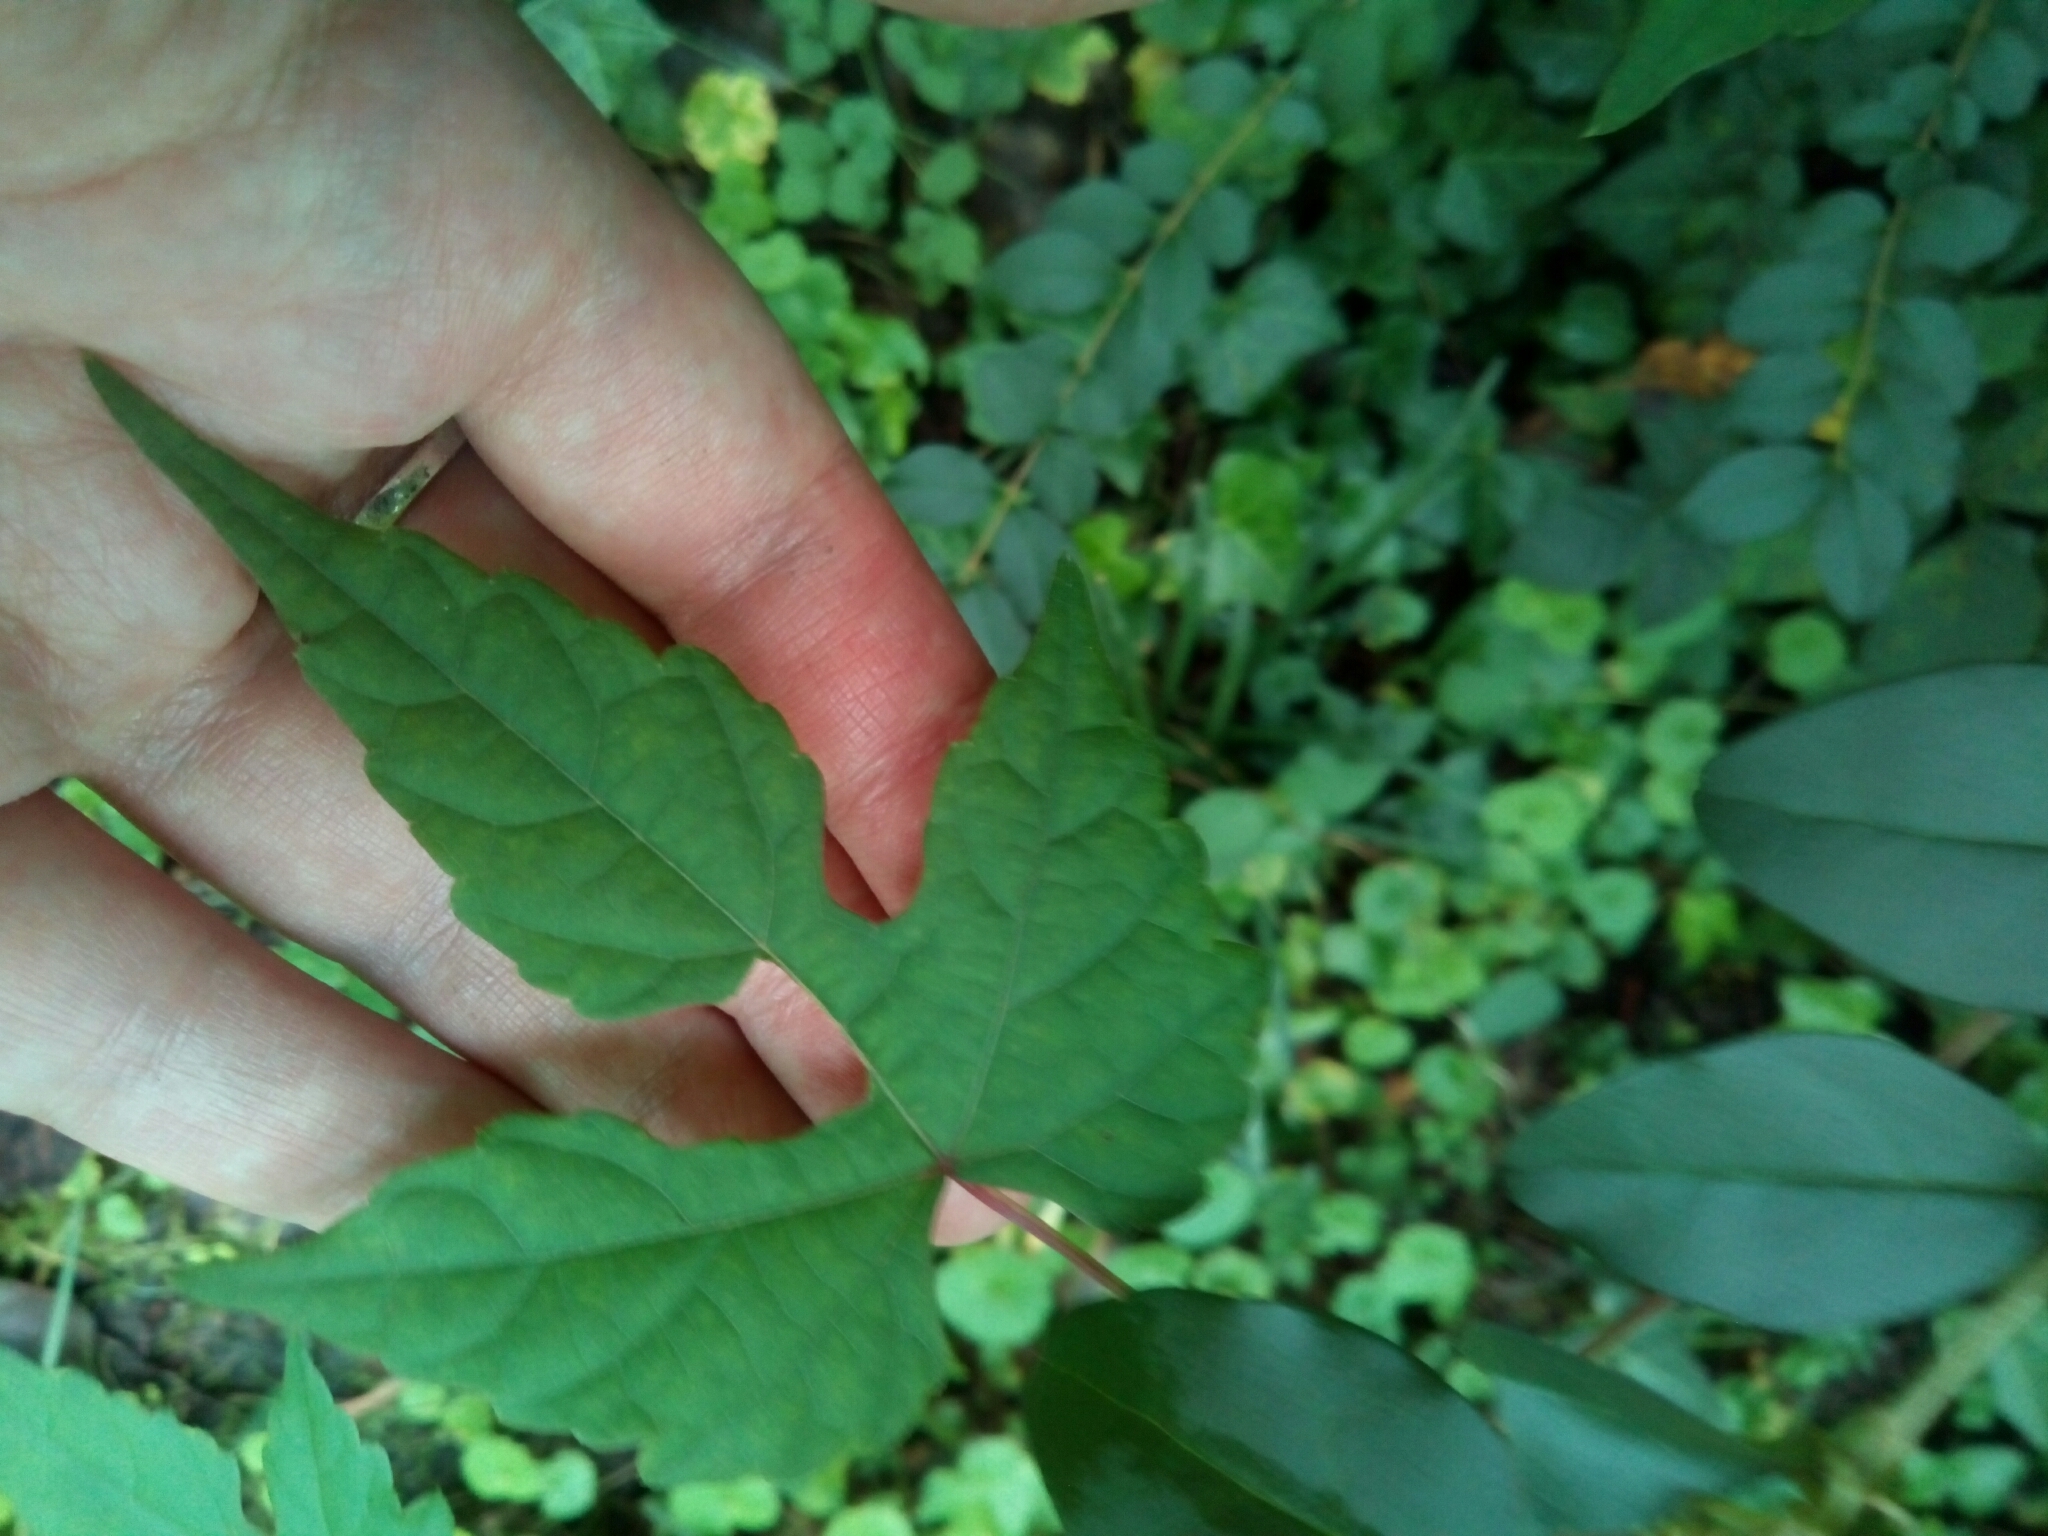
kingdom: Plantae
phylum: Tracheophyta
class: Magnoliopsida
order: Vitales
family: Vitaceae
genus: Ampelopsis
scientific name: Ampelopsis glandulosa
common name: Amur peppervine
